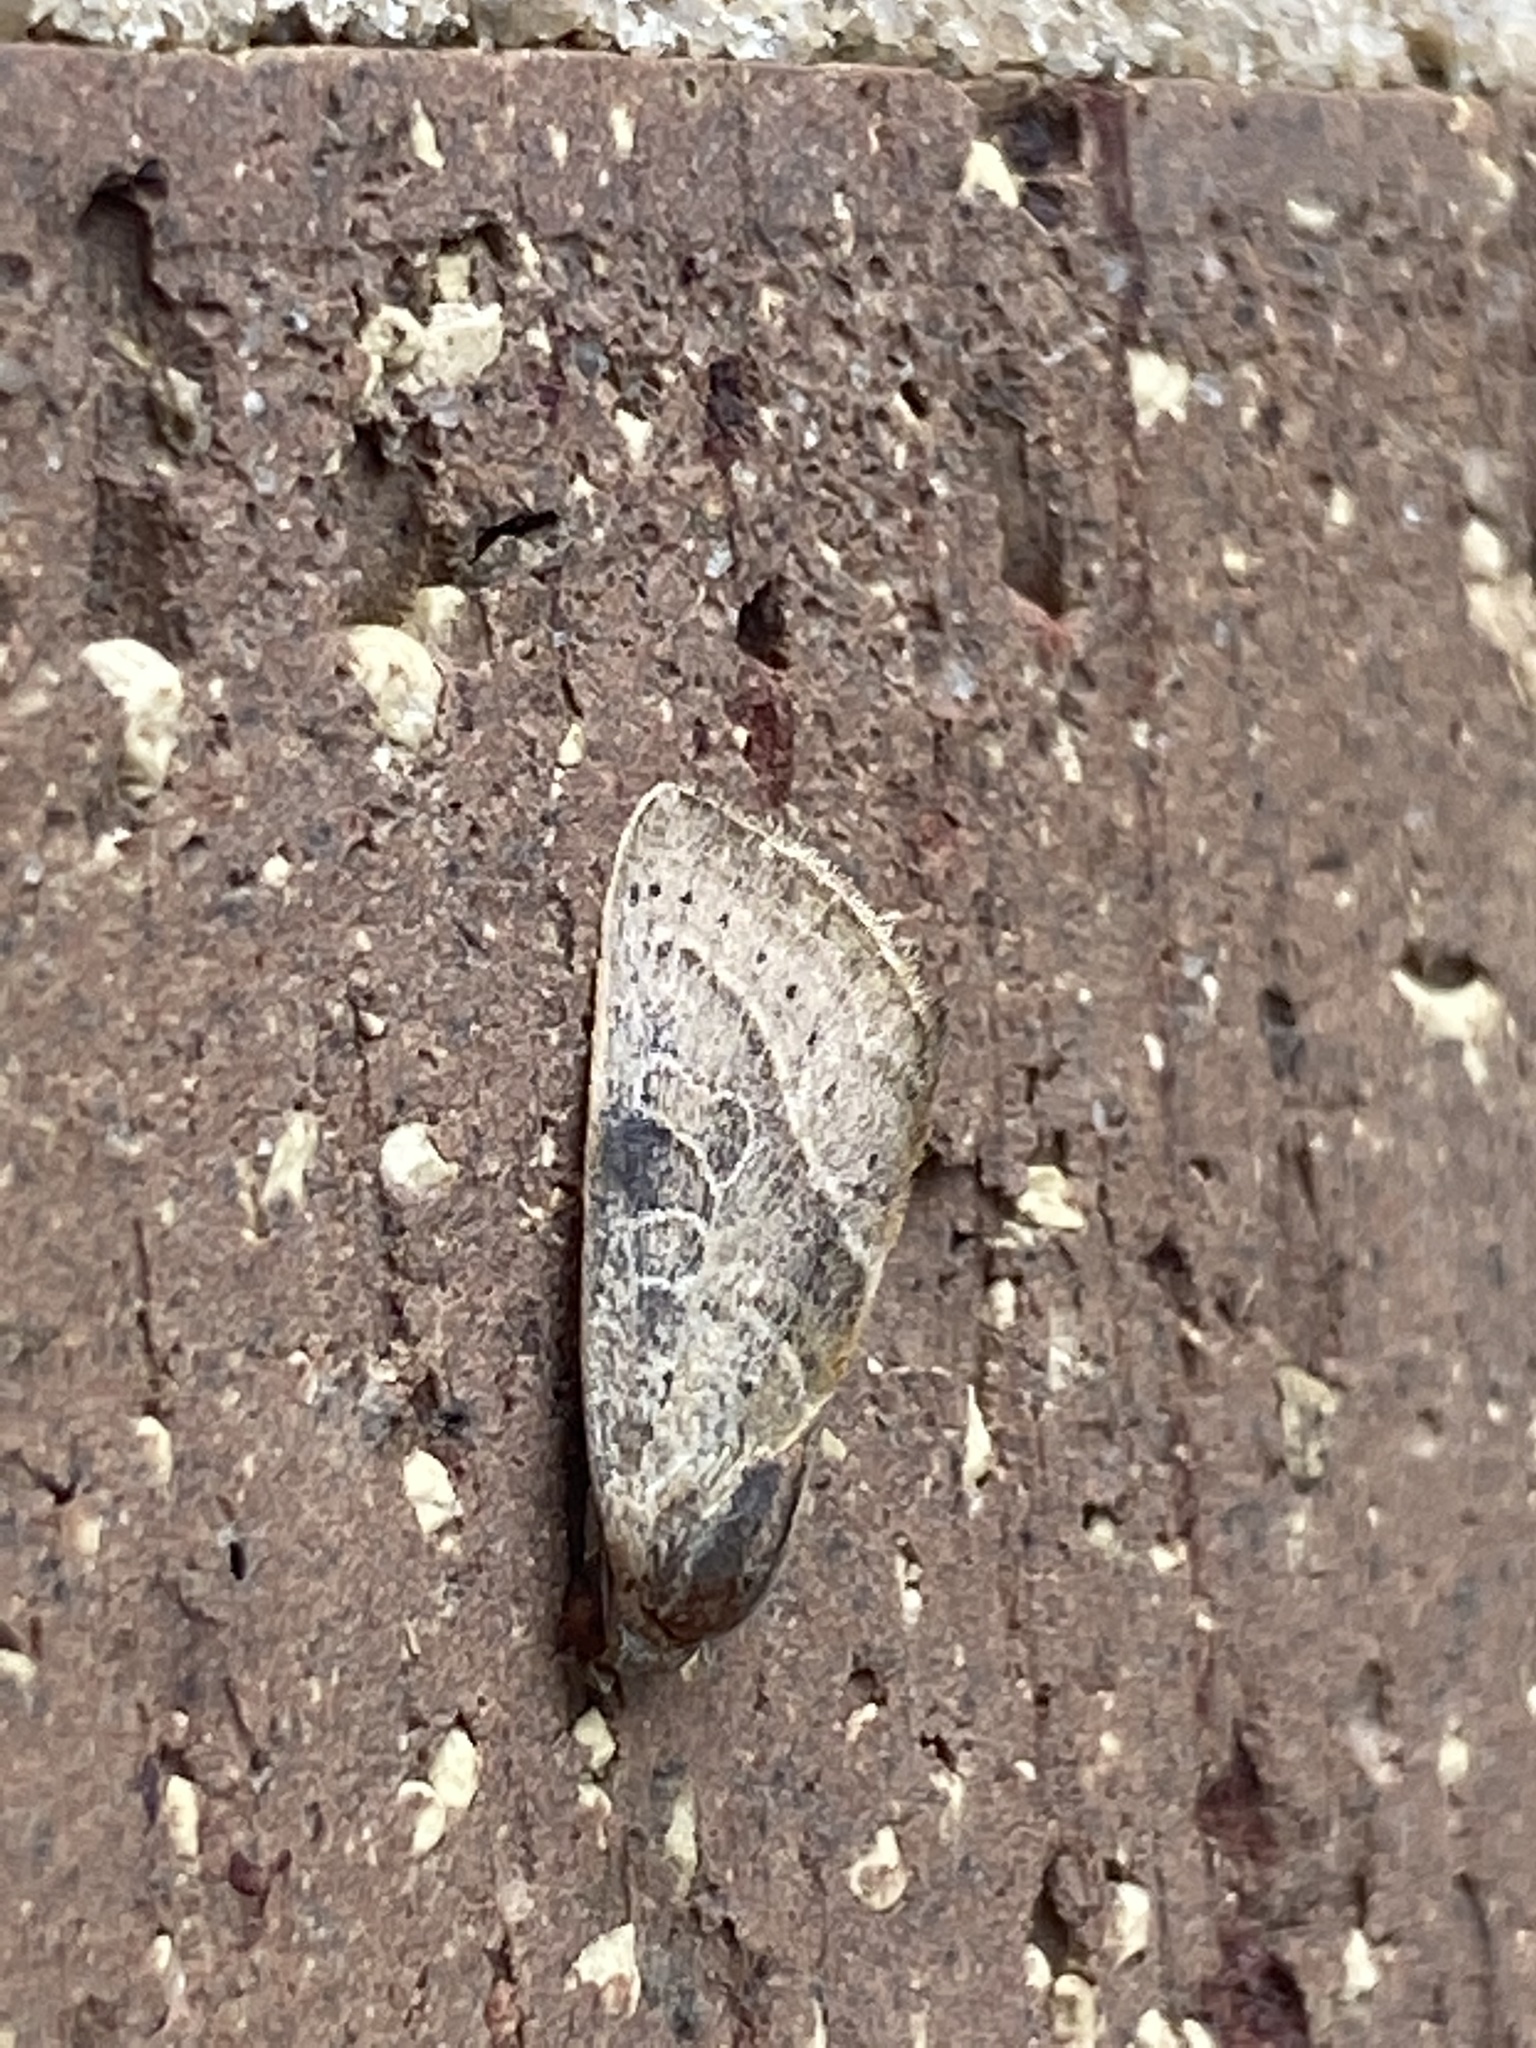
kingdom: Animalia
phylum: Arthropoda
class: Insecta
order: Lepidoptera
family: Noctuidae
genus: Galgula
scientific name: Galgula partita
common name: Wedgeling
